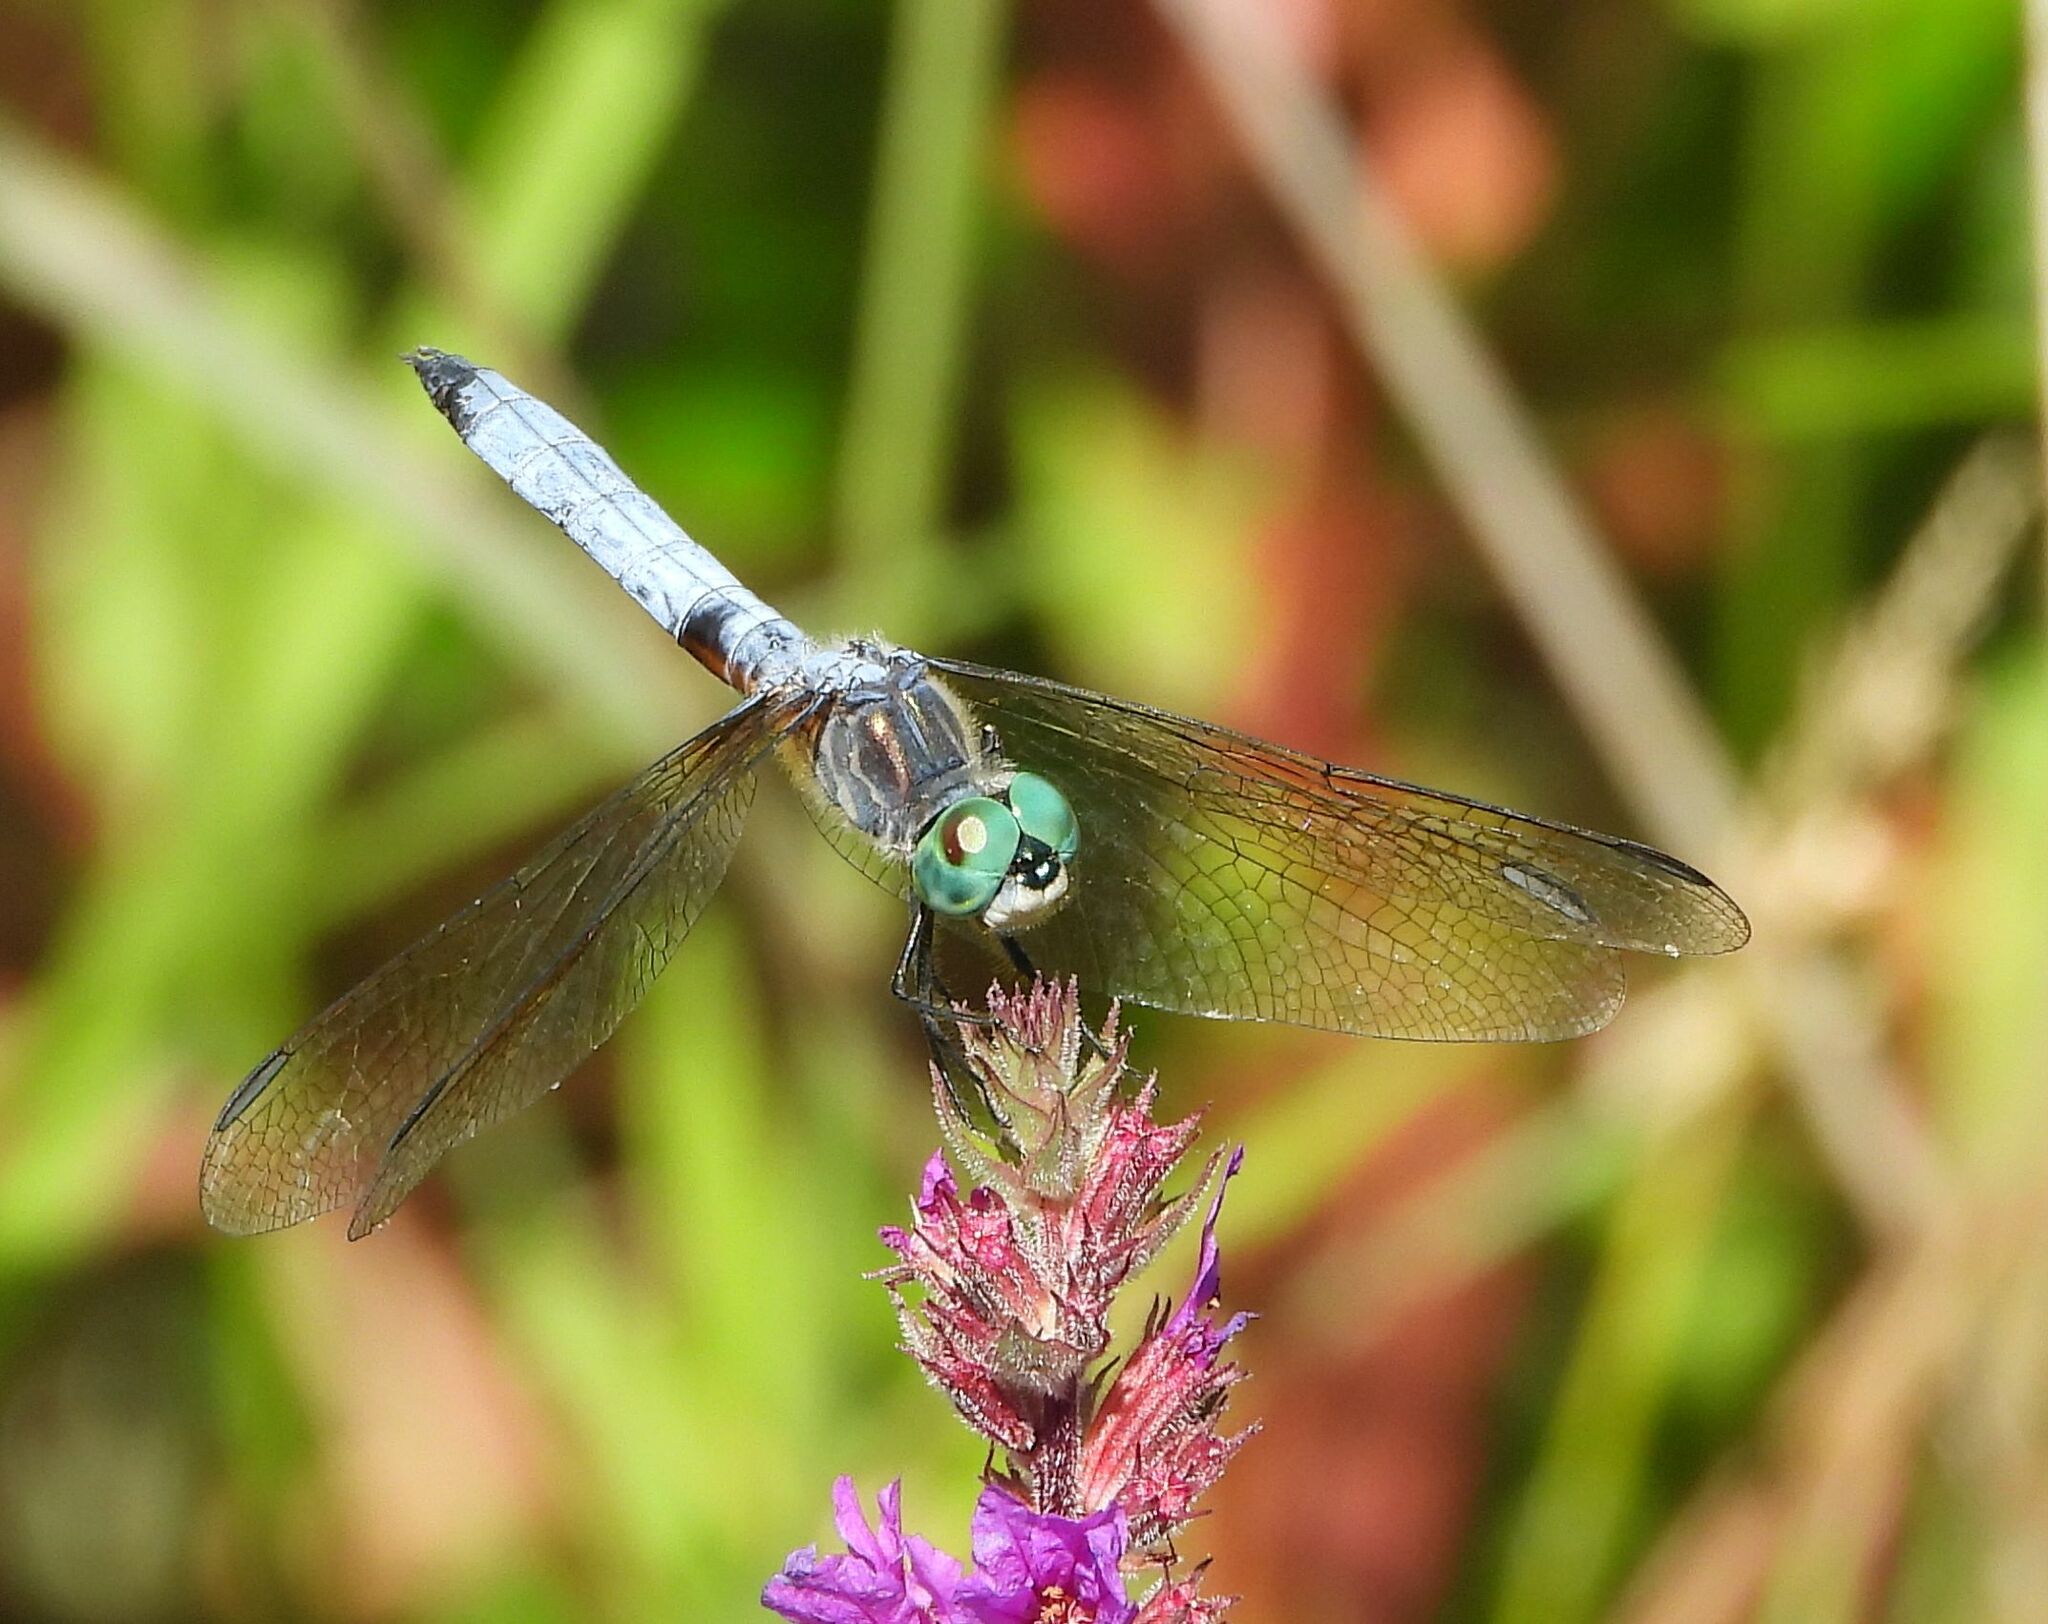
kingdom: Animalia
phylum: Arthropoda
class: Insecta
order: Odonata
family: Libellulidae
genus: Pachydiplax
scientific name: Pachydiplax longipennis
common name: Blue dasher
